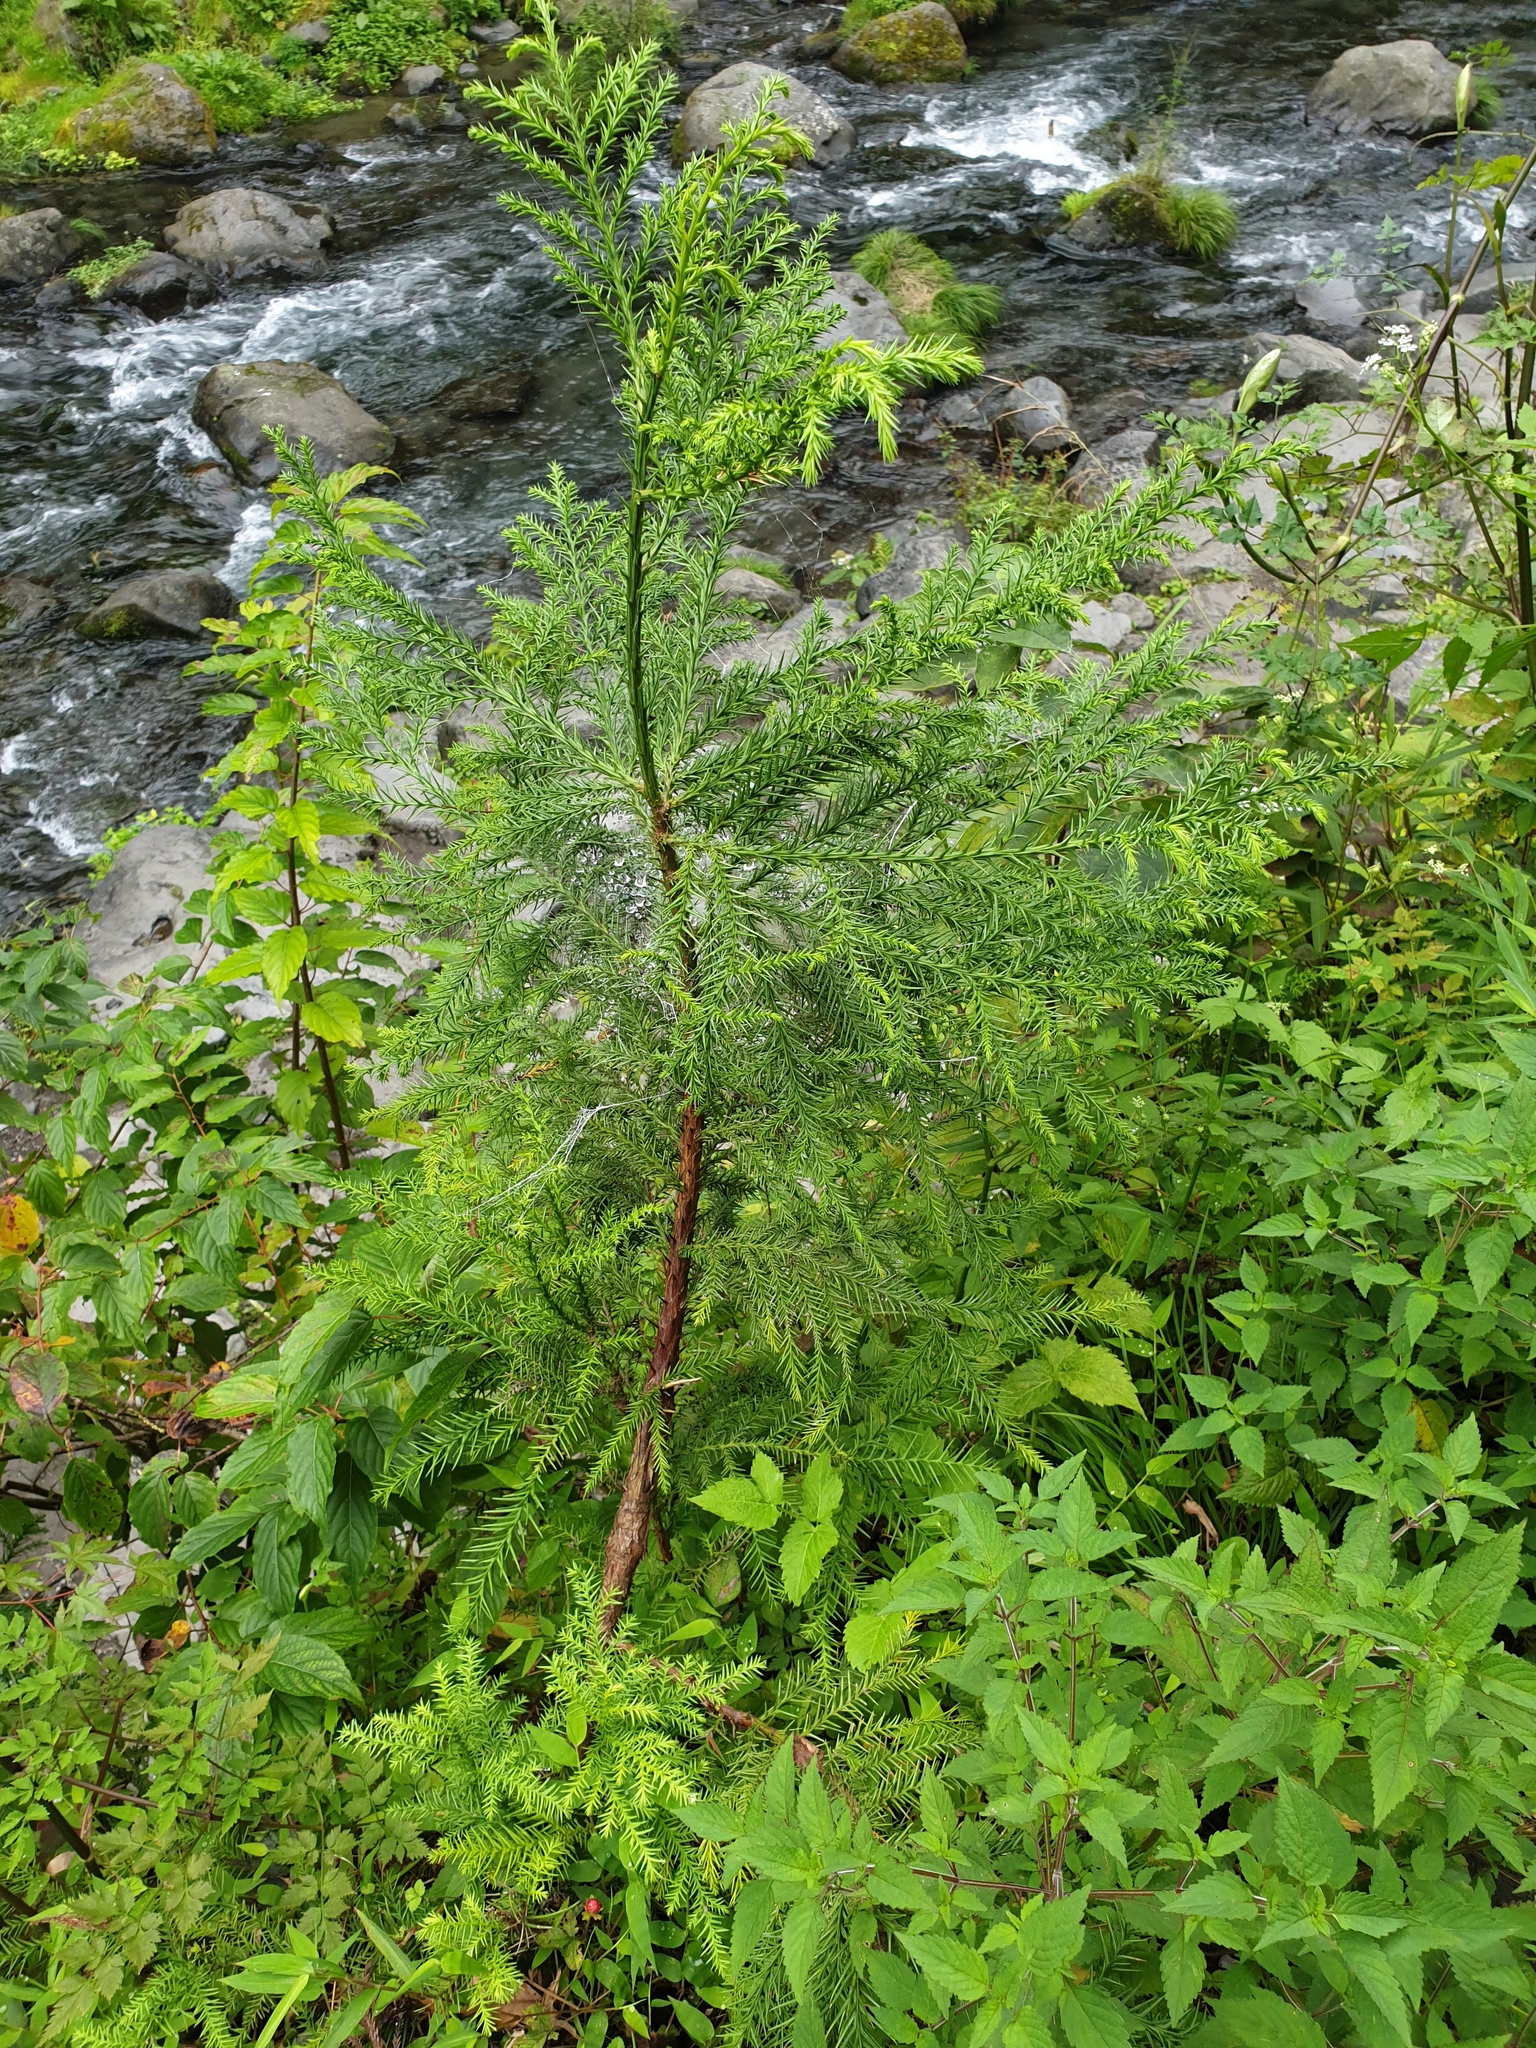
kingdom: Plantae
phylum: Tracheophyta
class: Pinopsida
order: Pinales
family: Cupressaceae
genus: Cryptomeria
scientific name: Cryptomeria japonica
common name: Japanese cedar
